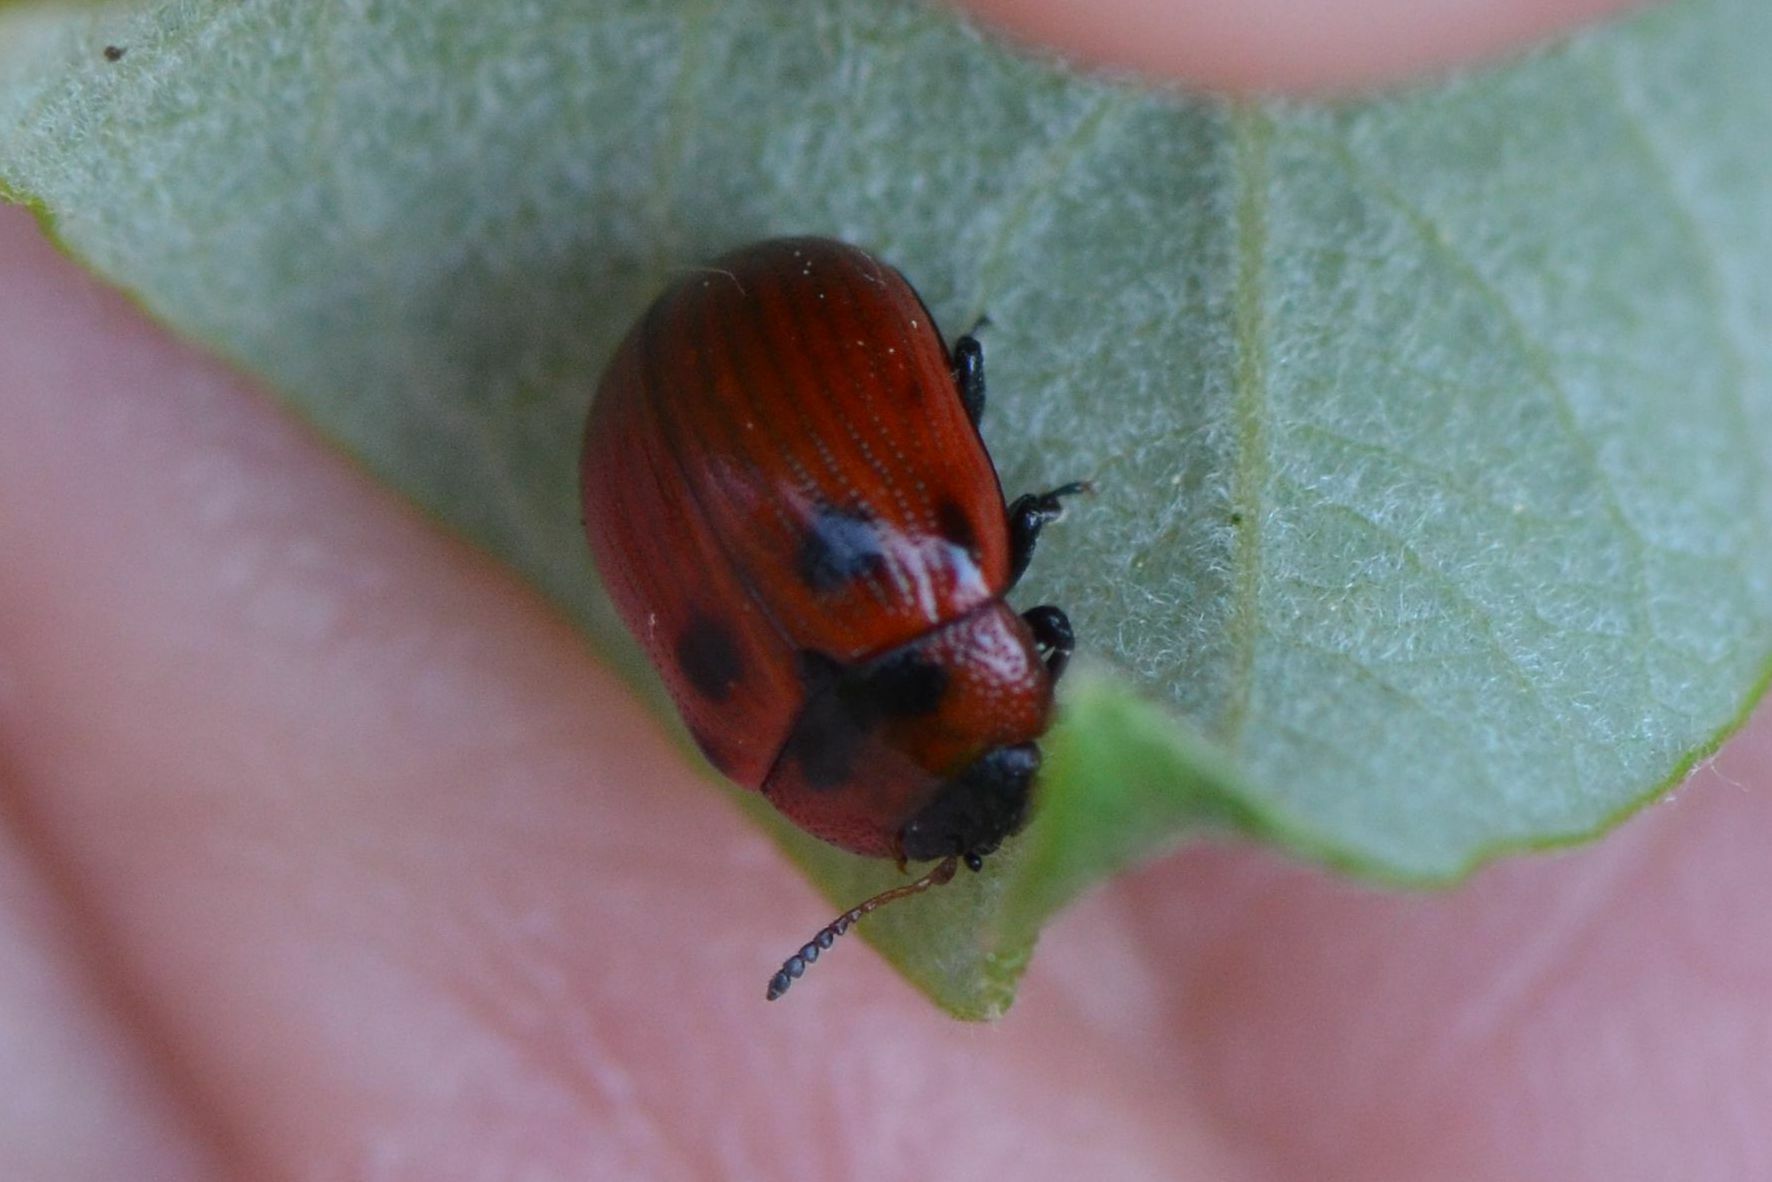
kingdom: Animalia
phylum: Arthropoda
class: Insecta
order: Coleoptera
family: Chrysomelidae
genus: Gonioctena
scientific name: Gonioctena viminalis
